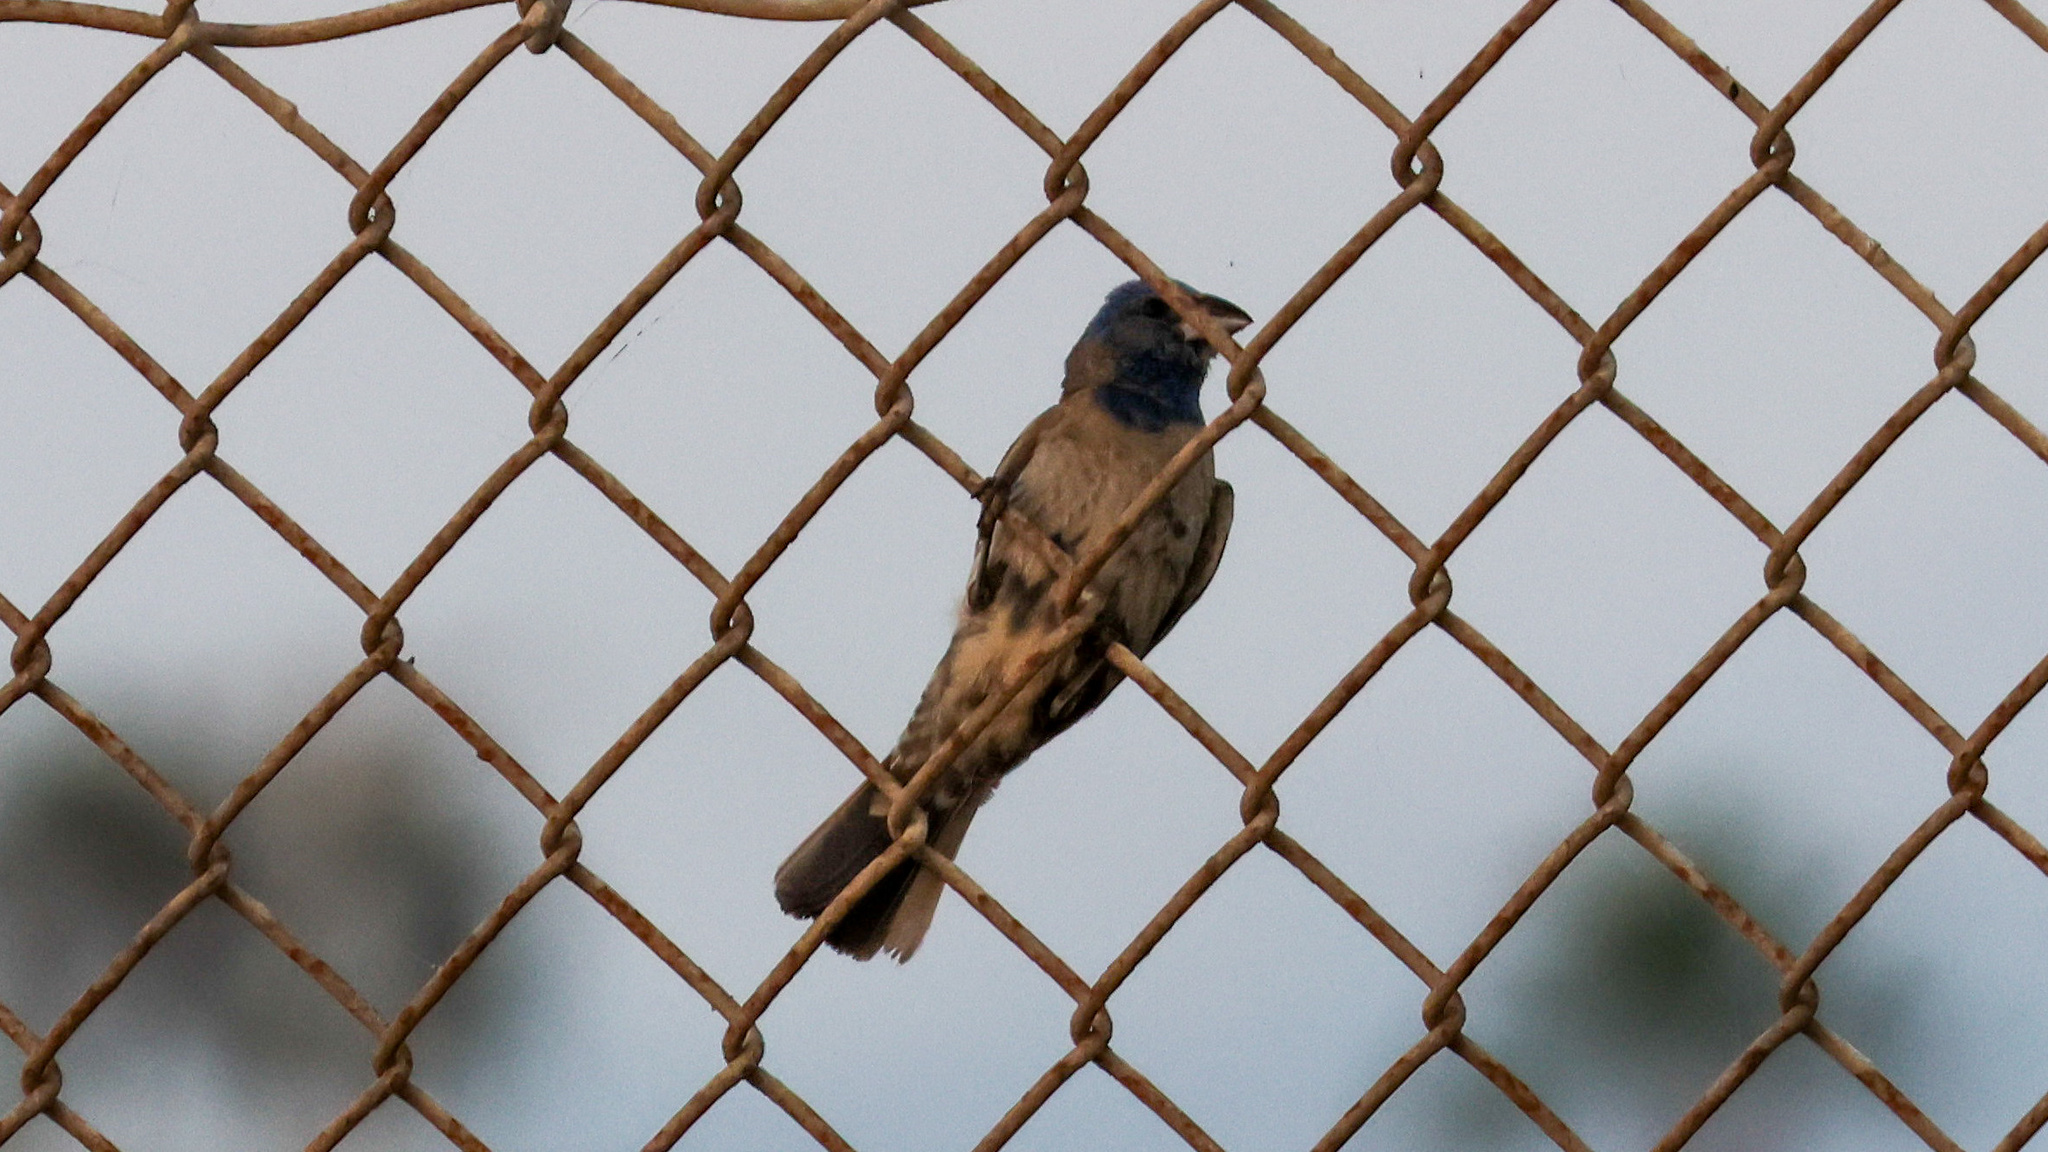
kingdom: Animalia
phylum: Chordata
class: Aves
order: Passeriformes
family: Cardinalidae
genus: Passerina
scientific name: Passerina caerulea
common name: Blue grosbeak
